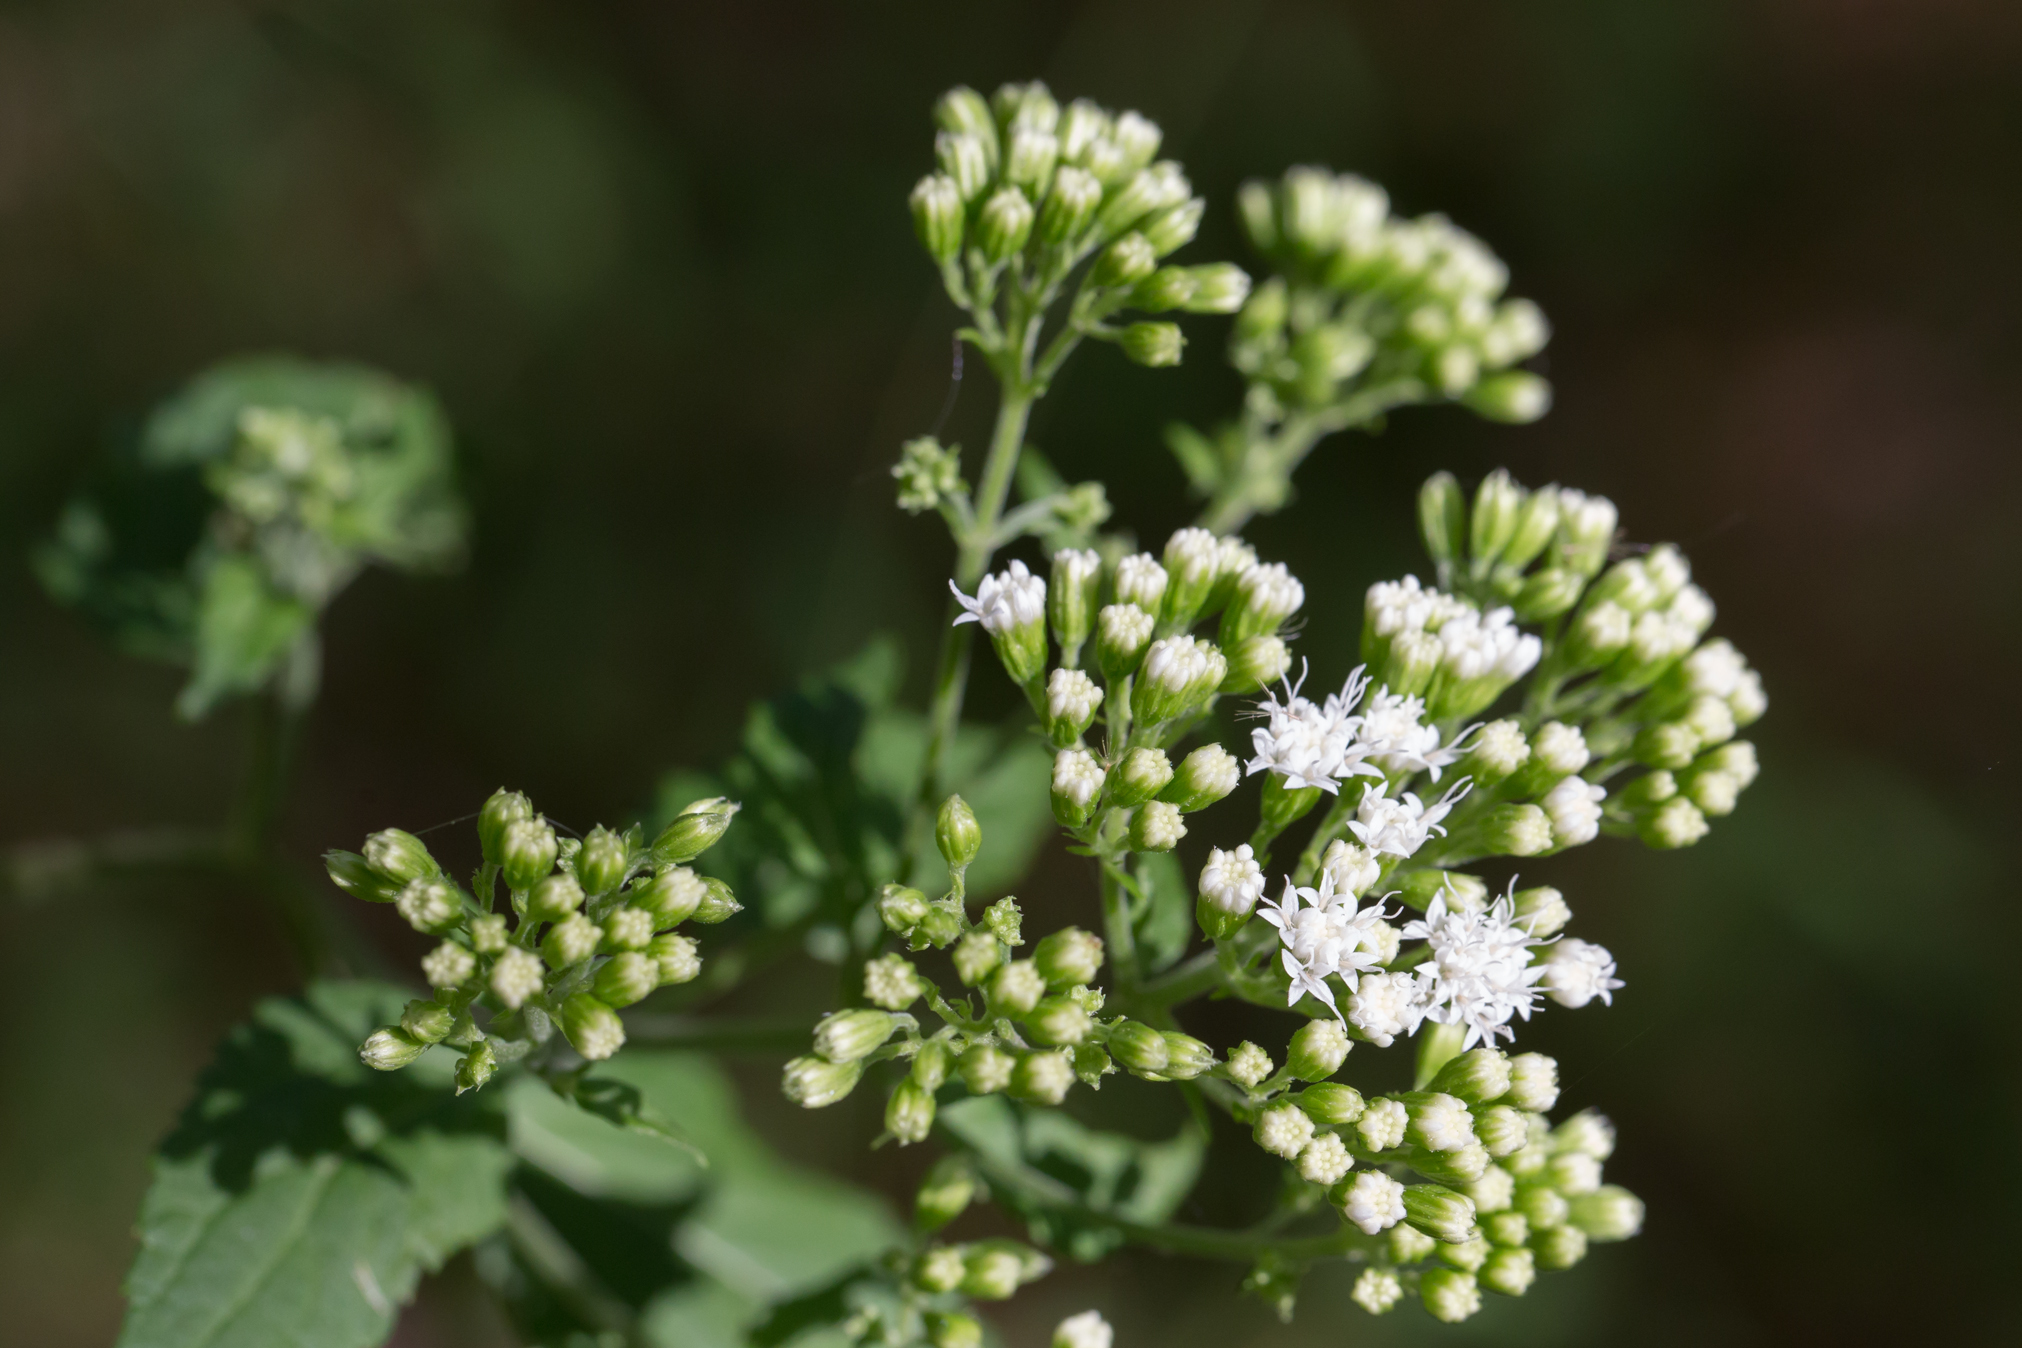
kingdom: Plantae
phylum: Tracheophyta
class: Magnoliopsida
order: Asterales
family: Asteraceae
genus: Ageratina
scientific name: Ageratina altissima
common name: White snakeroot
